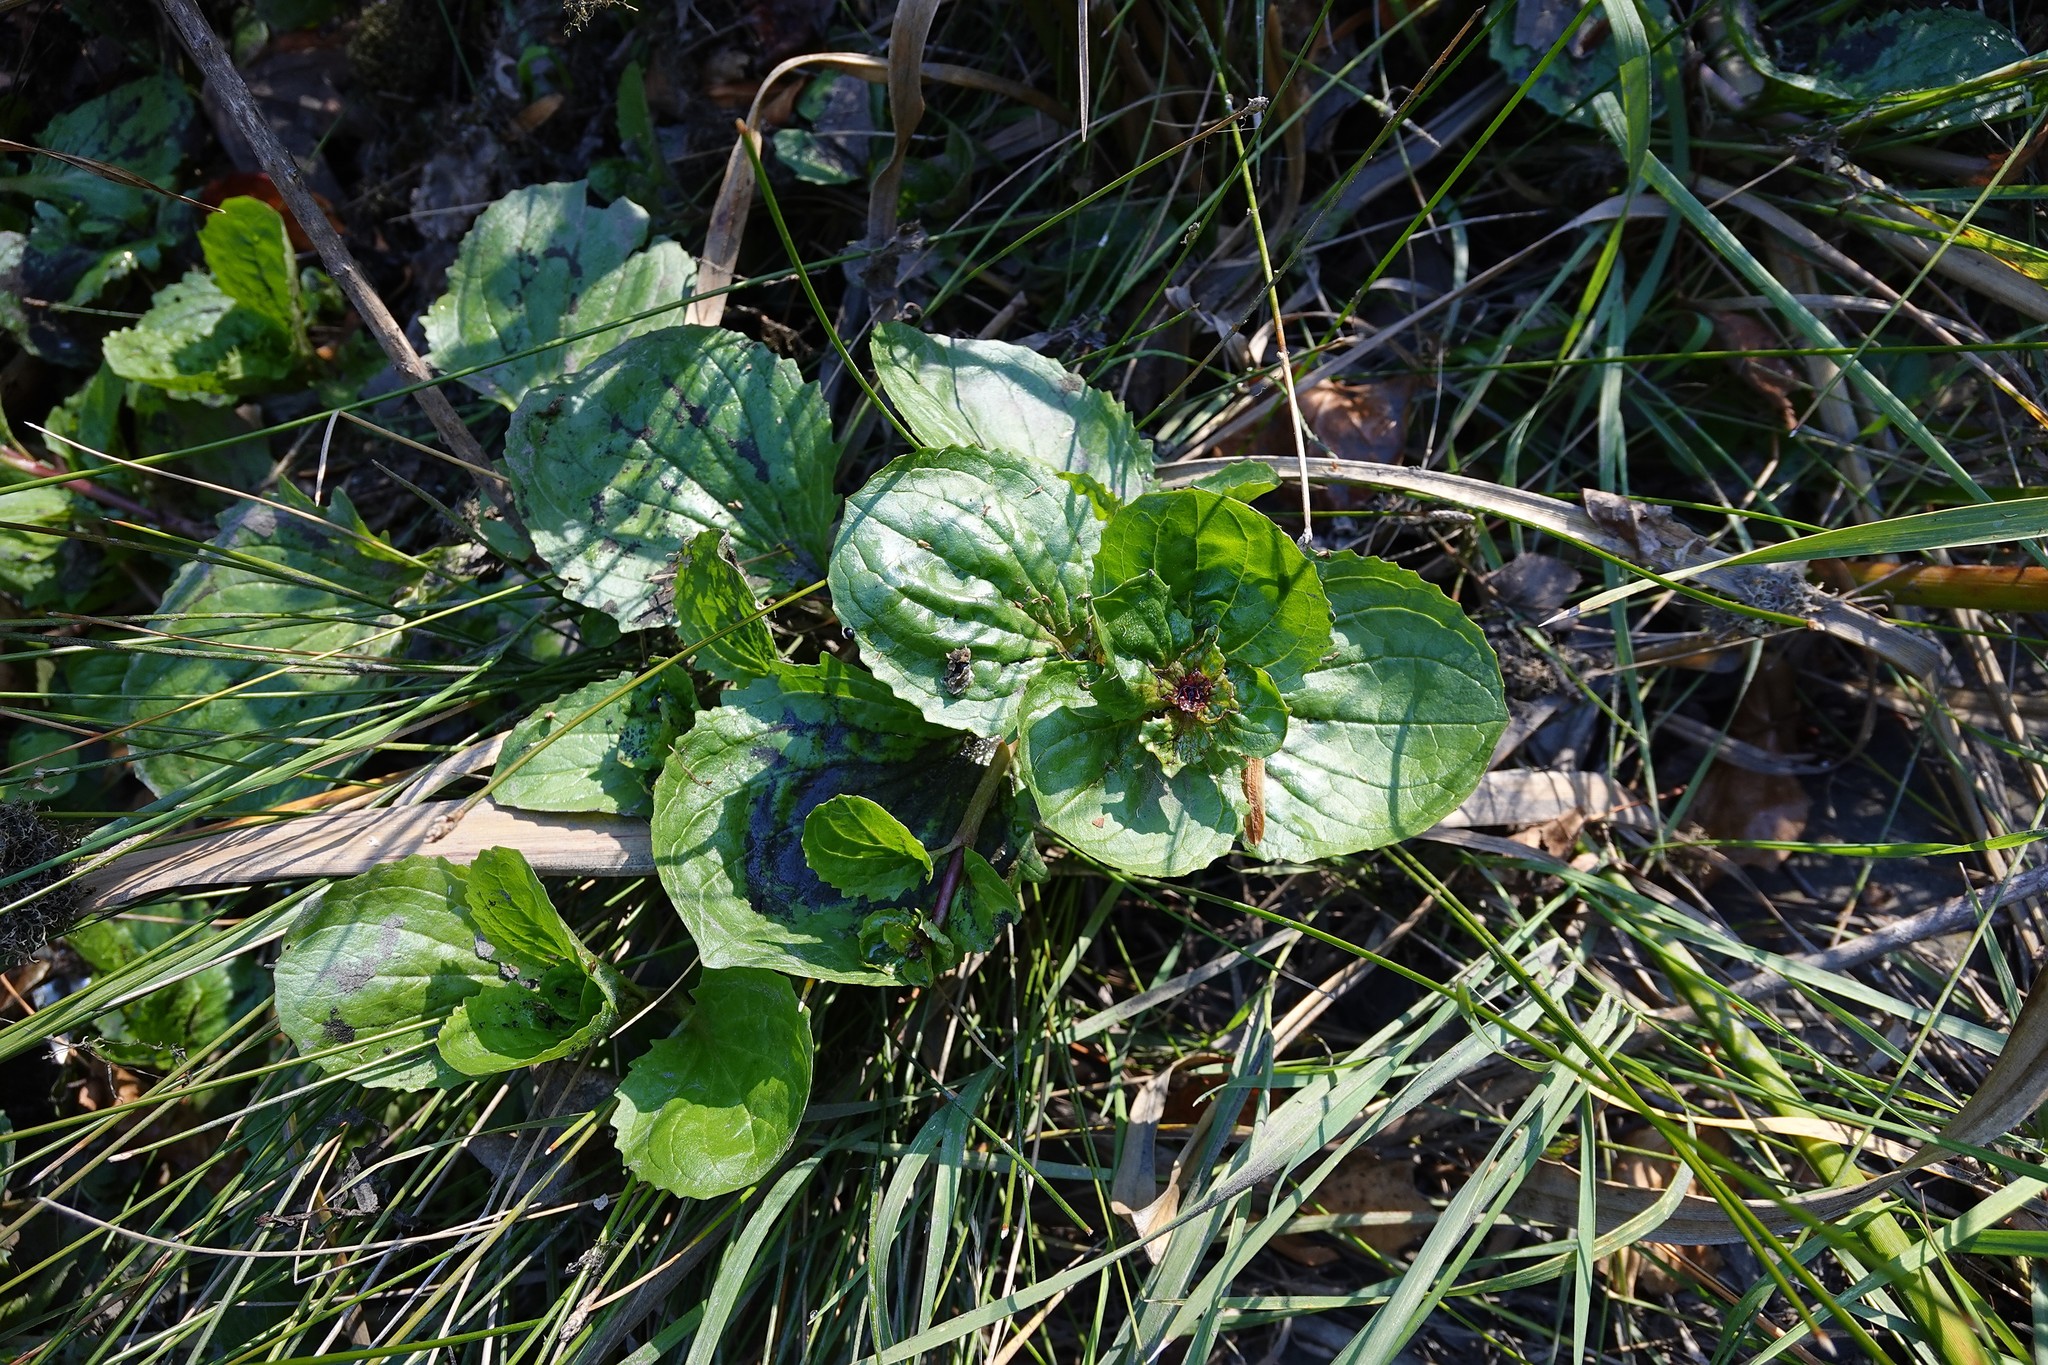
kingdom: Plantae
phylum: Tracheophyta
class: Magnoliopsida
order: Lamiales
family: Phrymaceae
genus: Erythranthe
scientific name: Erythranthe guttata
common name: Monkeyflower
